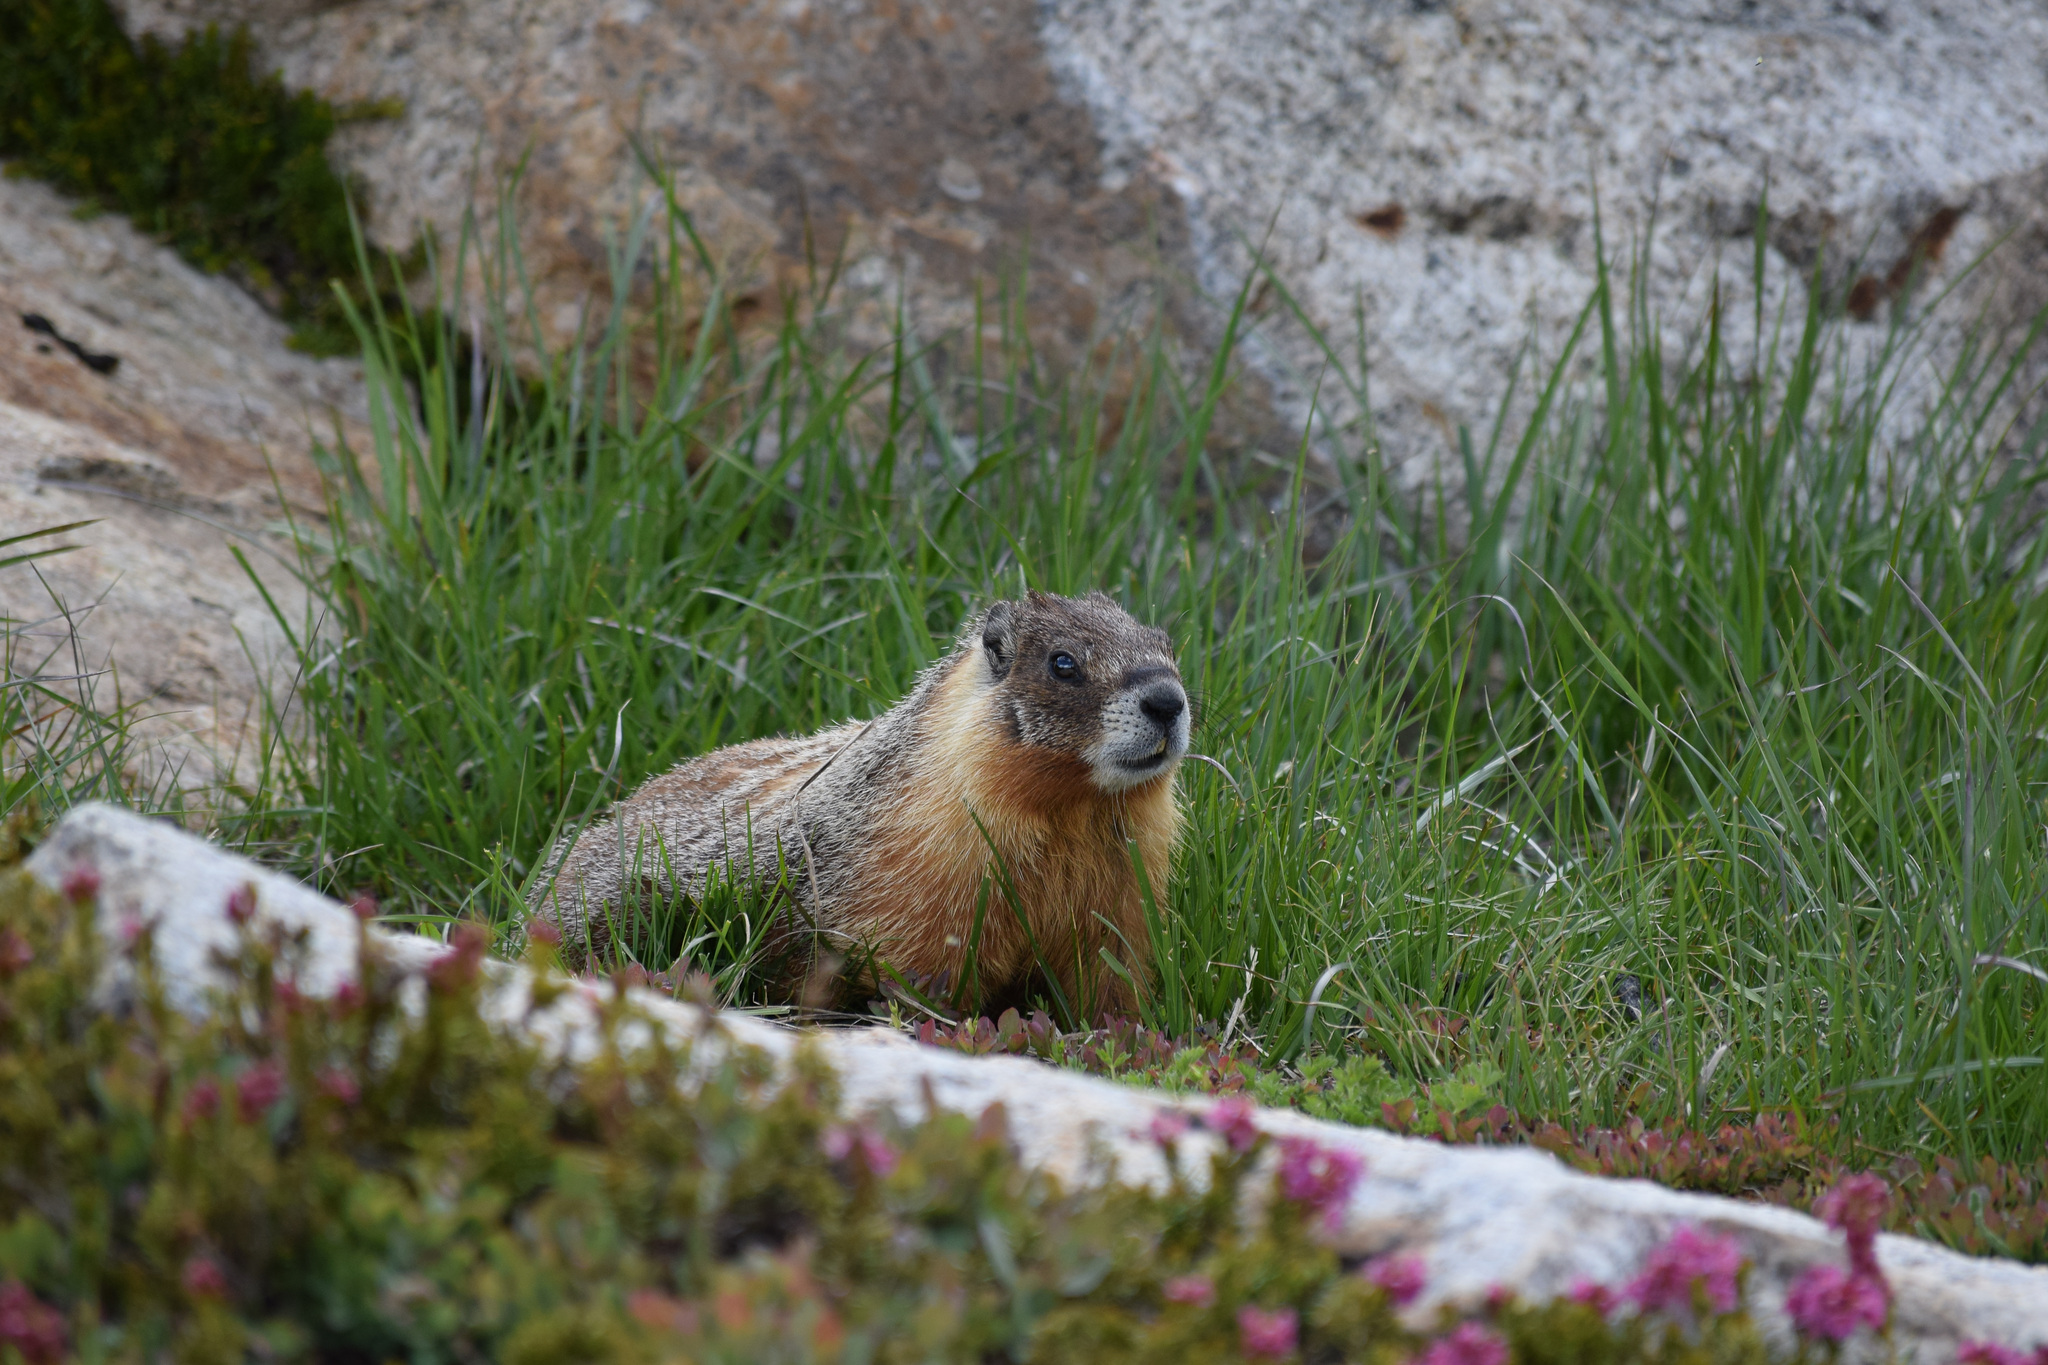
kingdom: Animalia
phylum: Chordata
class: Mammalia
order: Rodentia
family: Sciuridae
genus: Marmota
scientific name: Marmota flaviventris
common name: Yellow-bellied marmot
